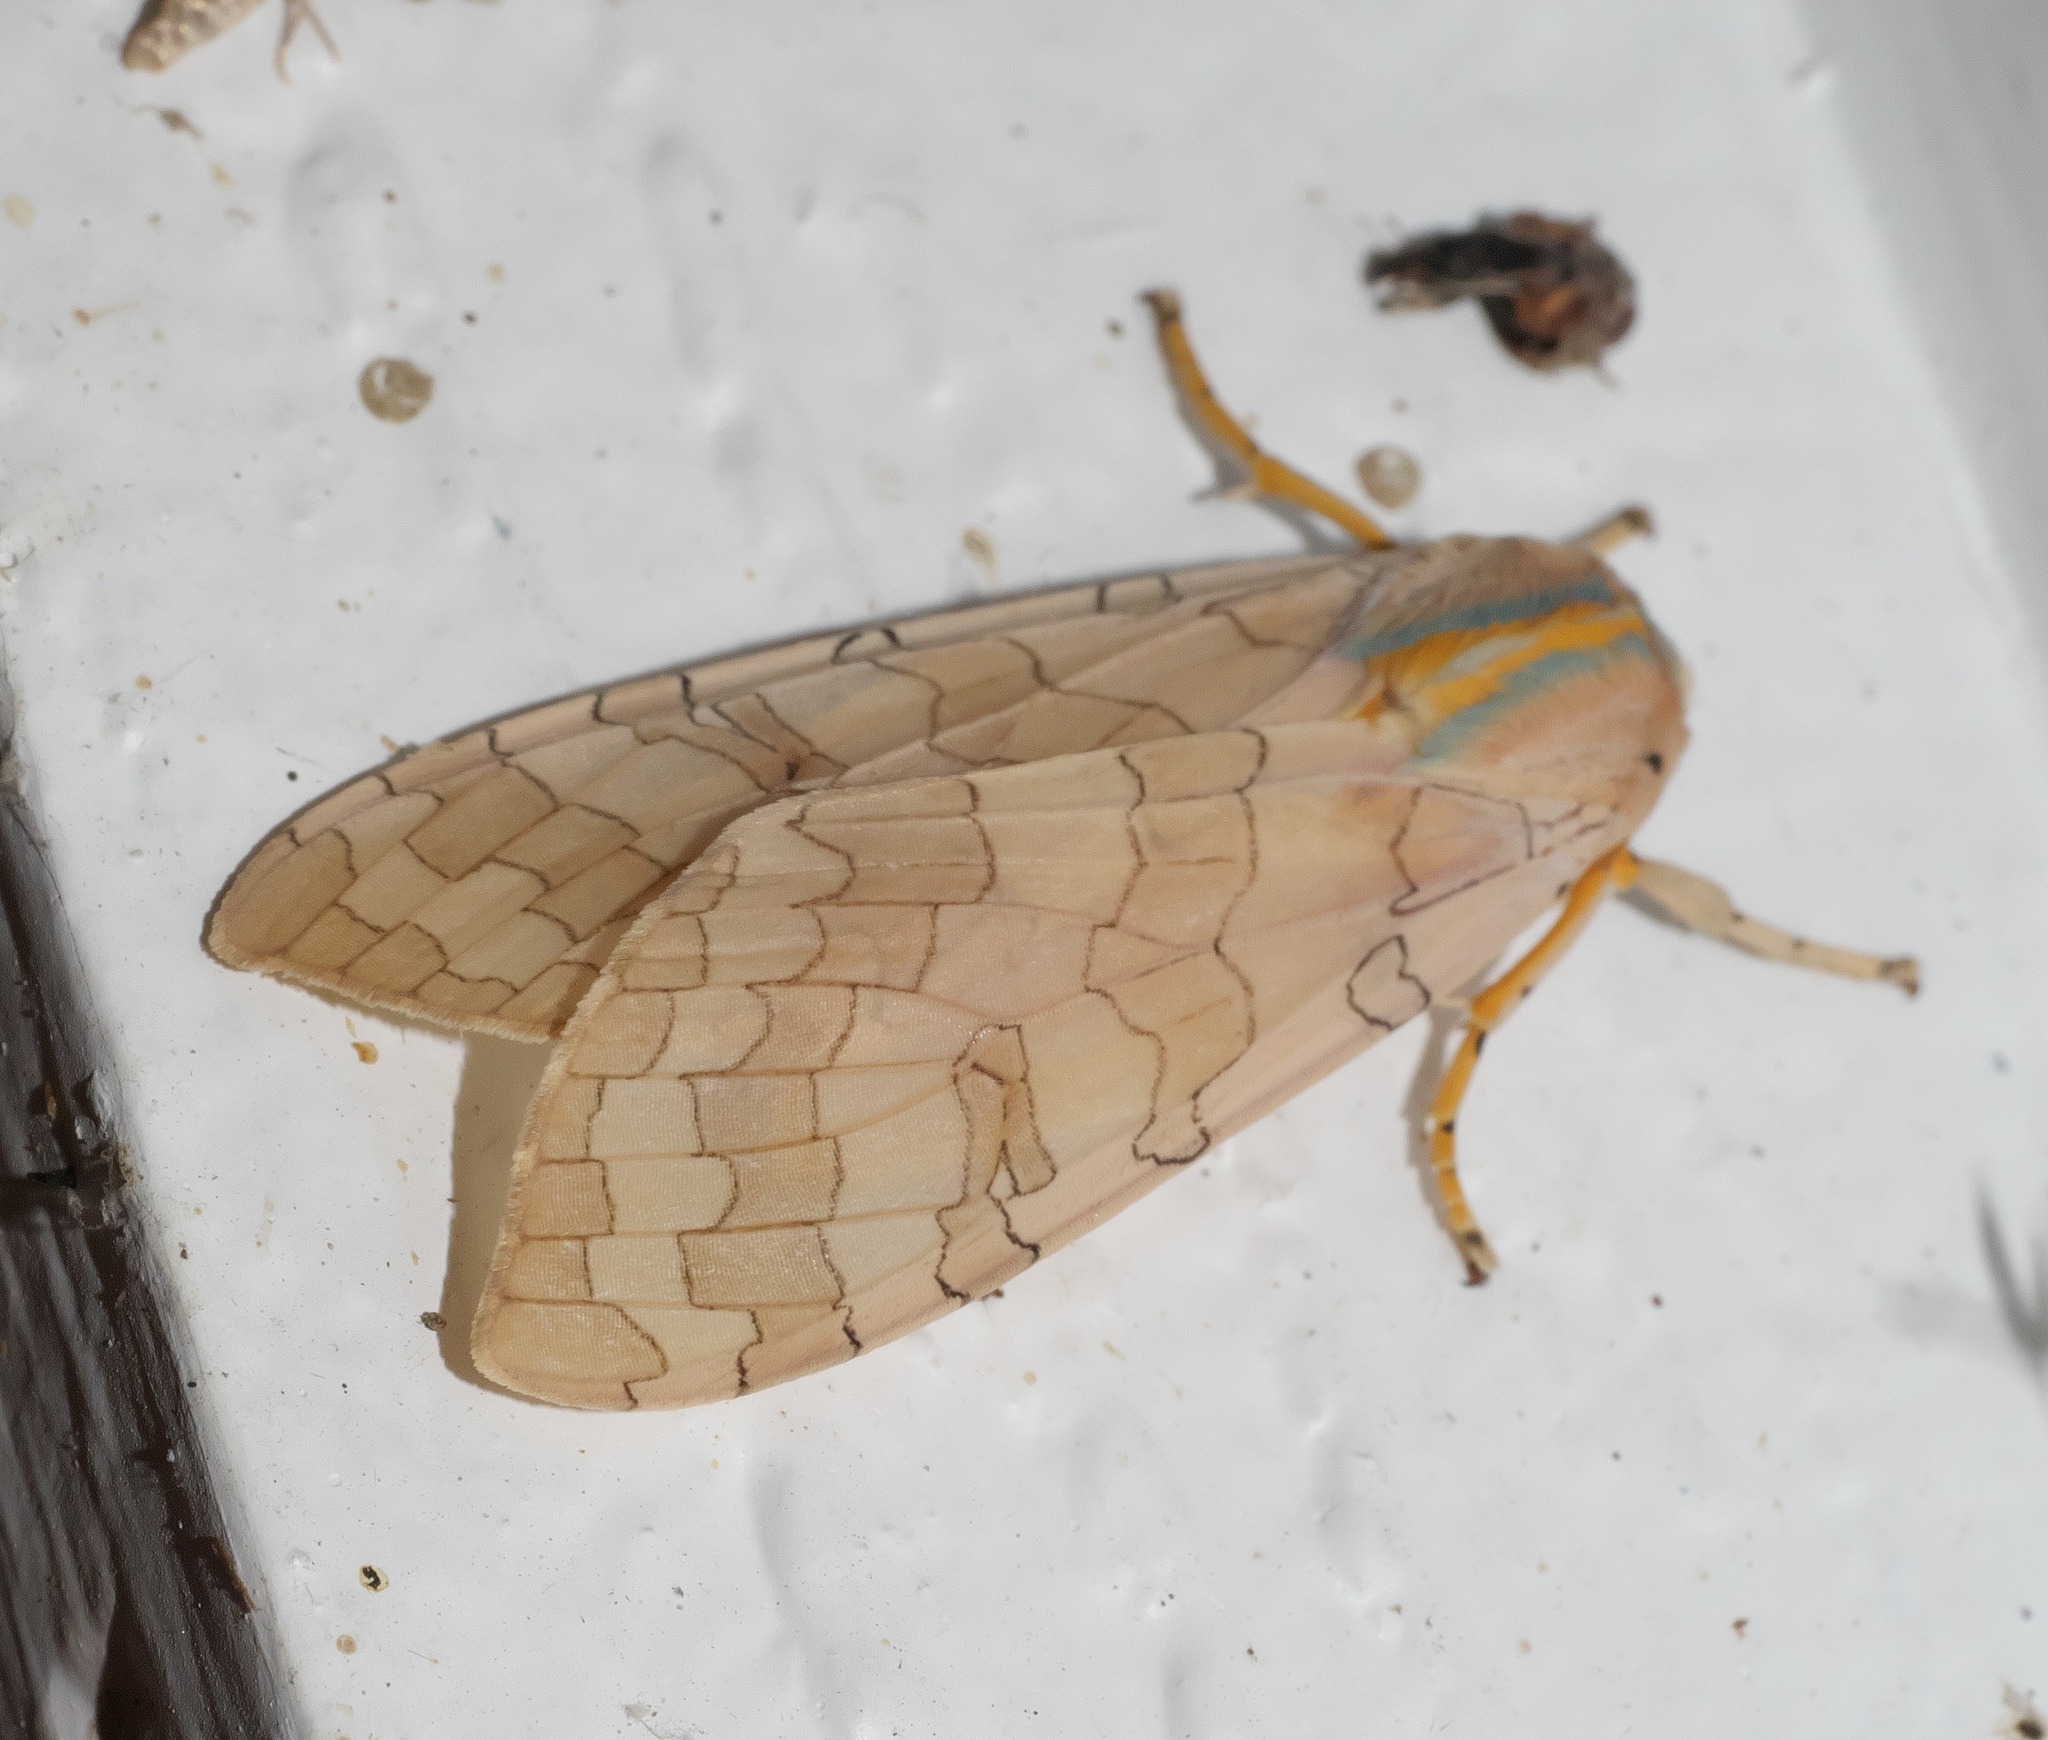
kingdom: Animalia
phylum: Arthropoda
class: Insecta
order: Lepidoptera
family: Erebidae
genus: Halysidota
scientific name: Halysidota
